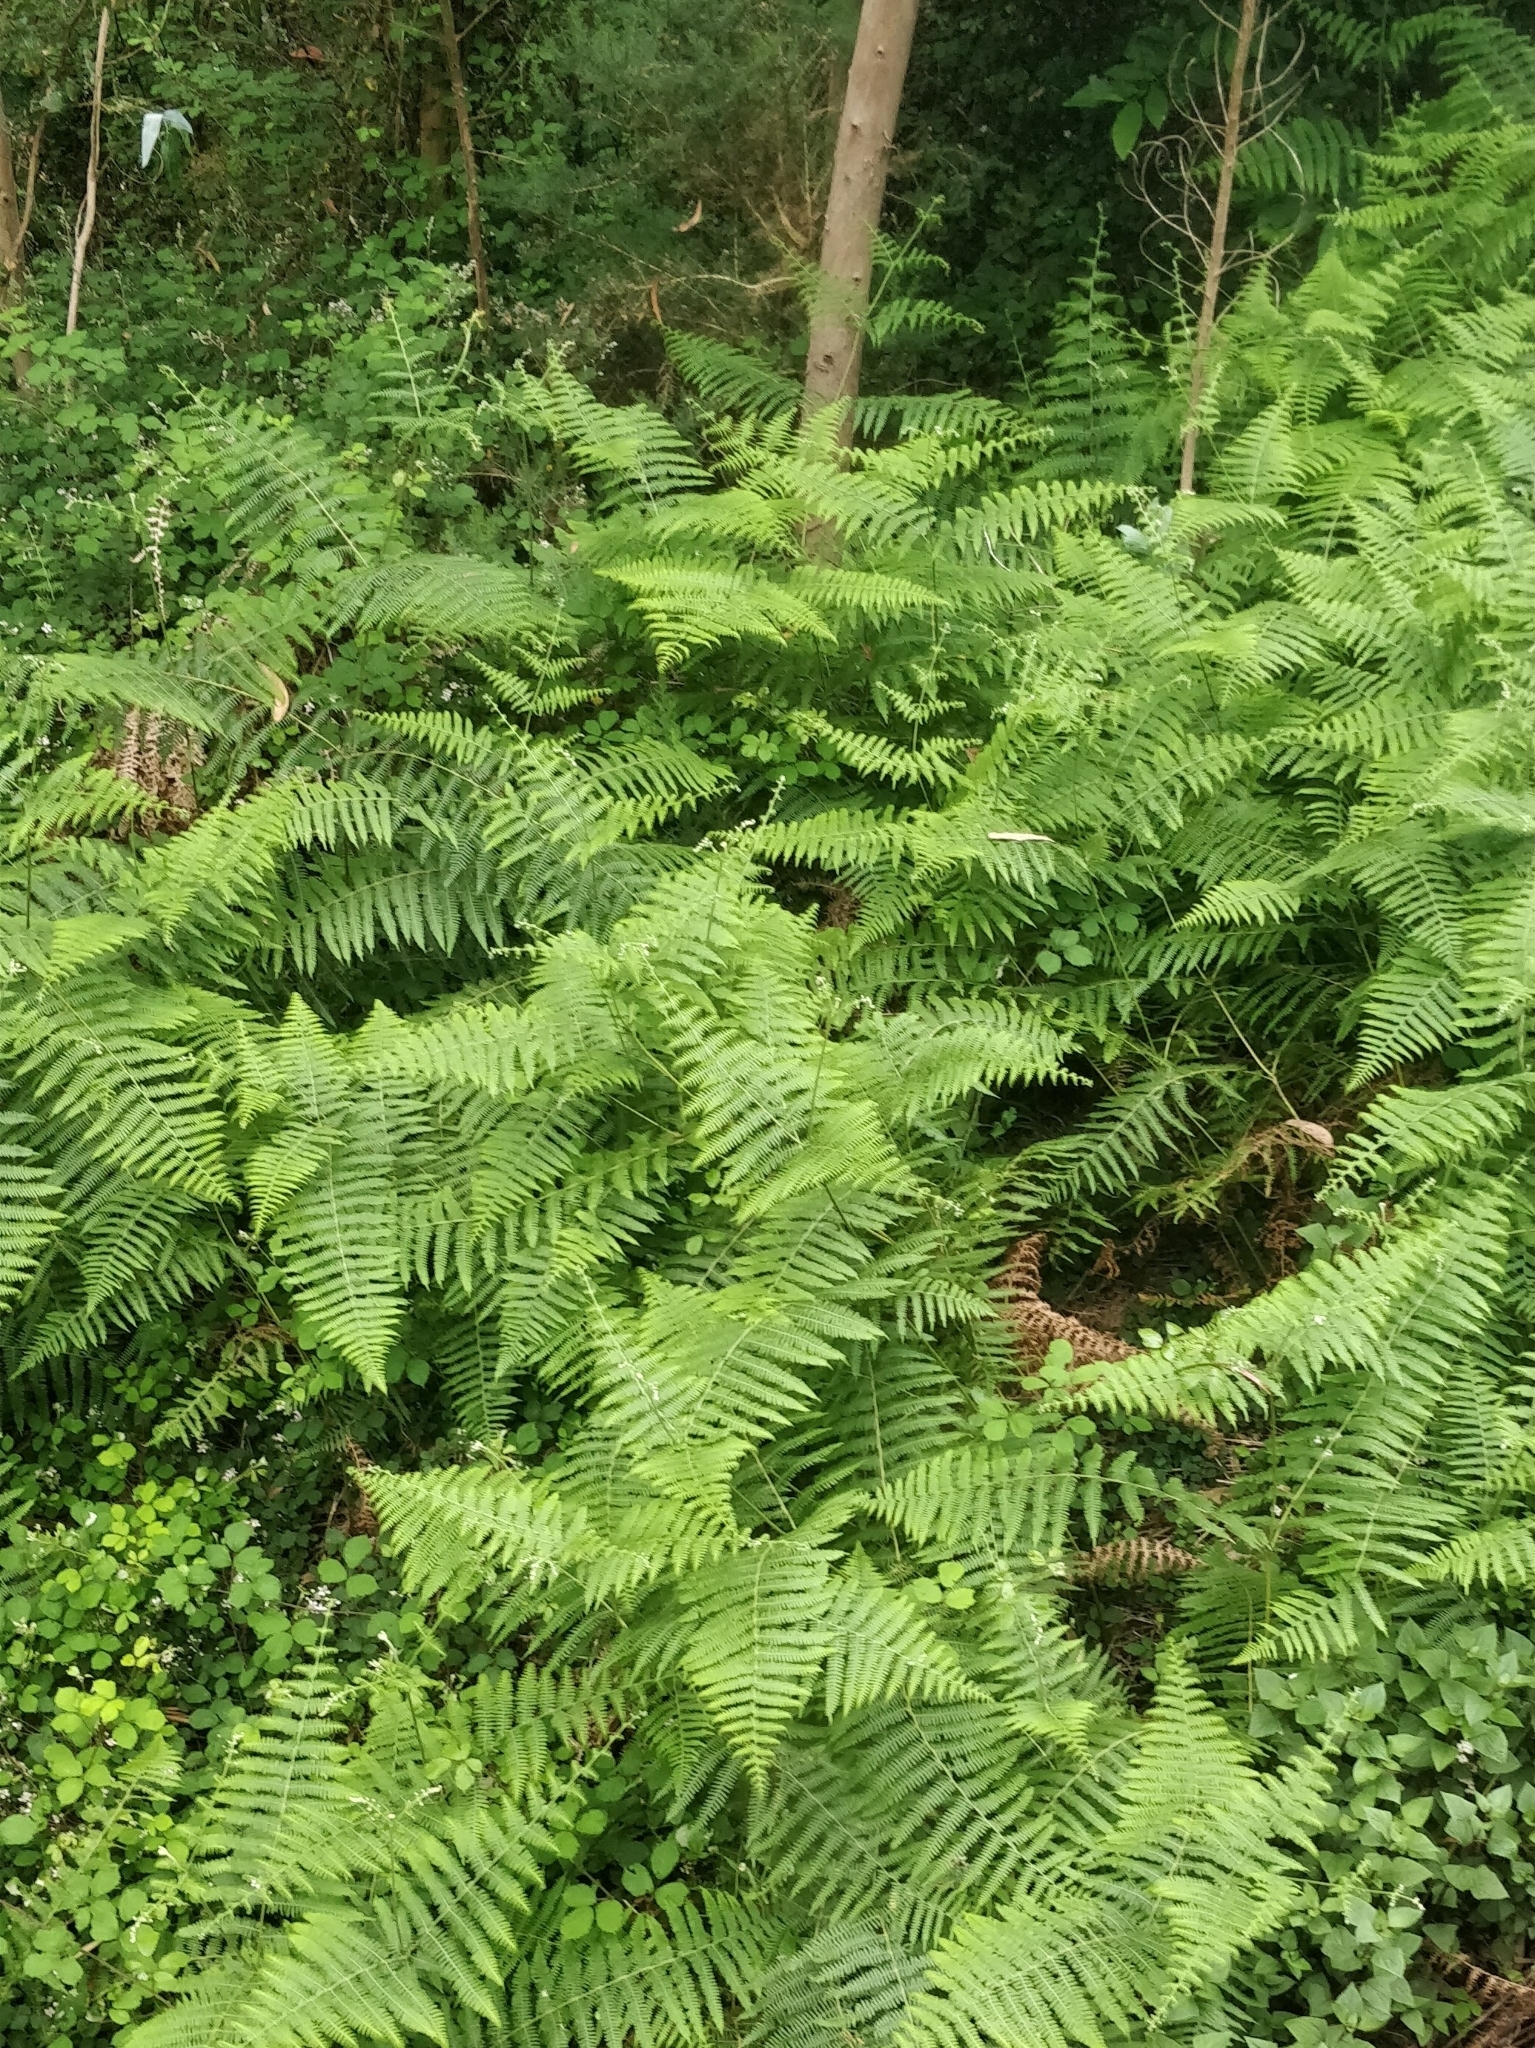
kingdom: Plantae
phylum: Tracheophyta
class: Polypodiopsida
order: Polypodiales
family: Dennstaedtiaceae
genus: Pteridium
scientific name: Pteridium aquilinum
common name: Bracken
